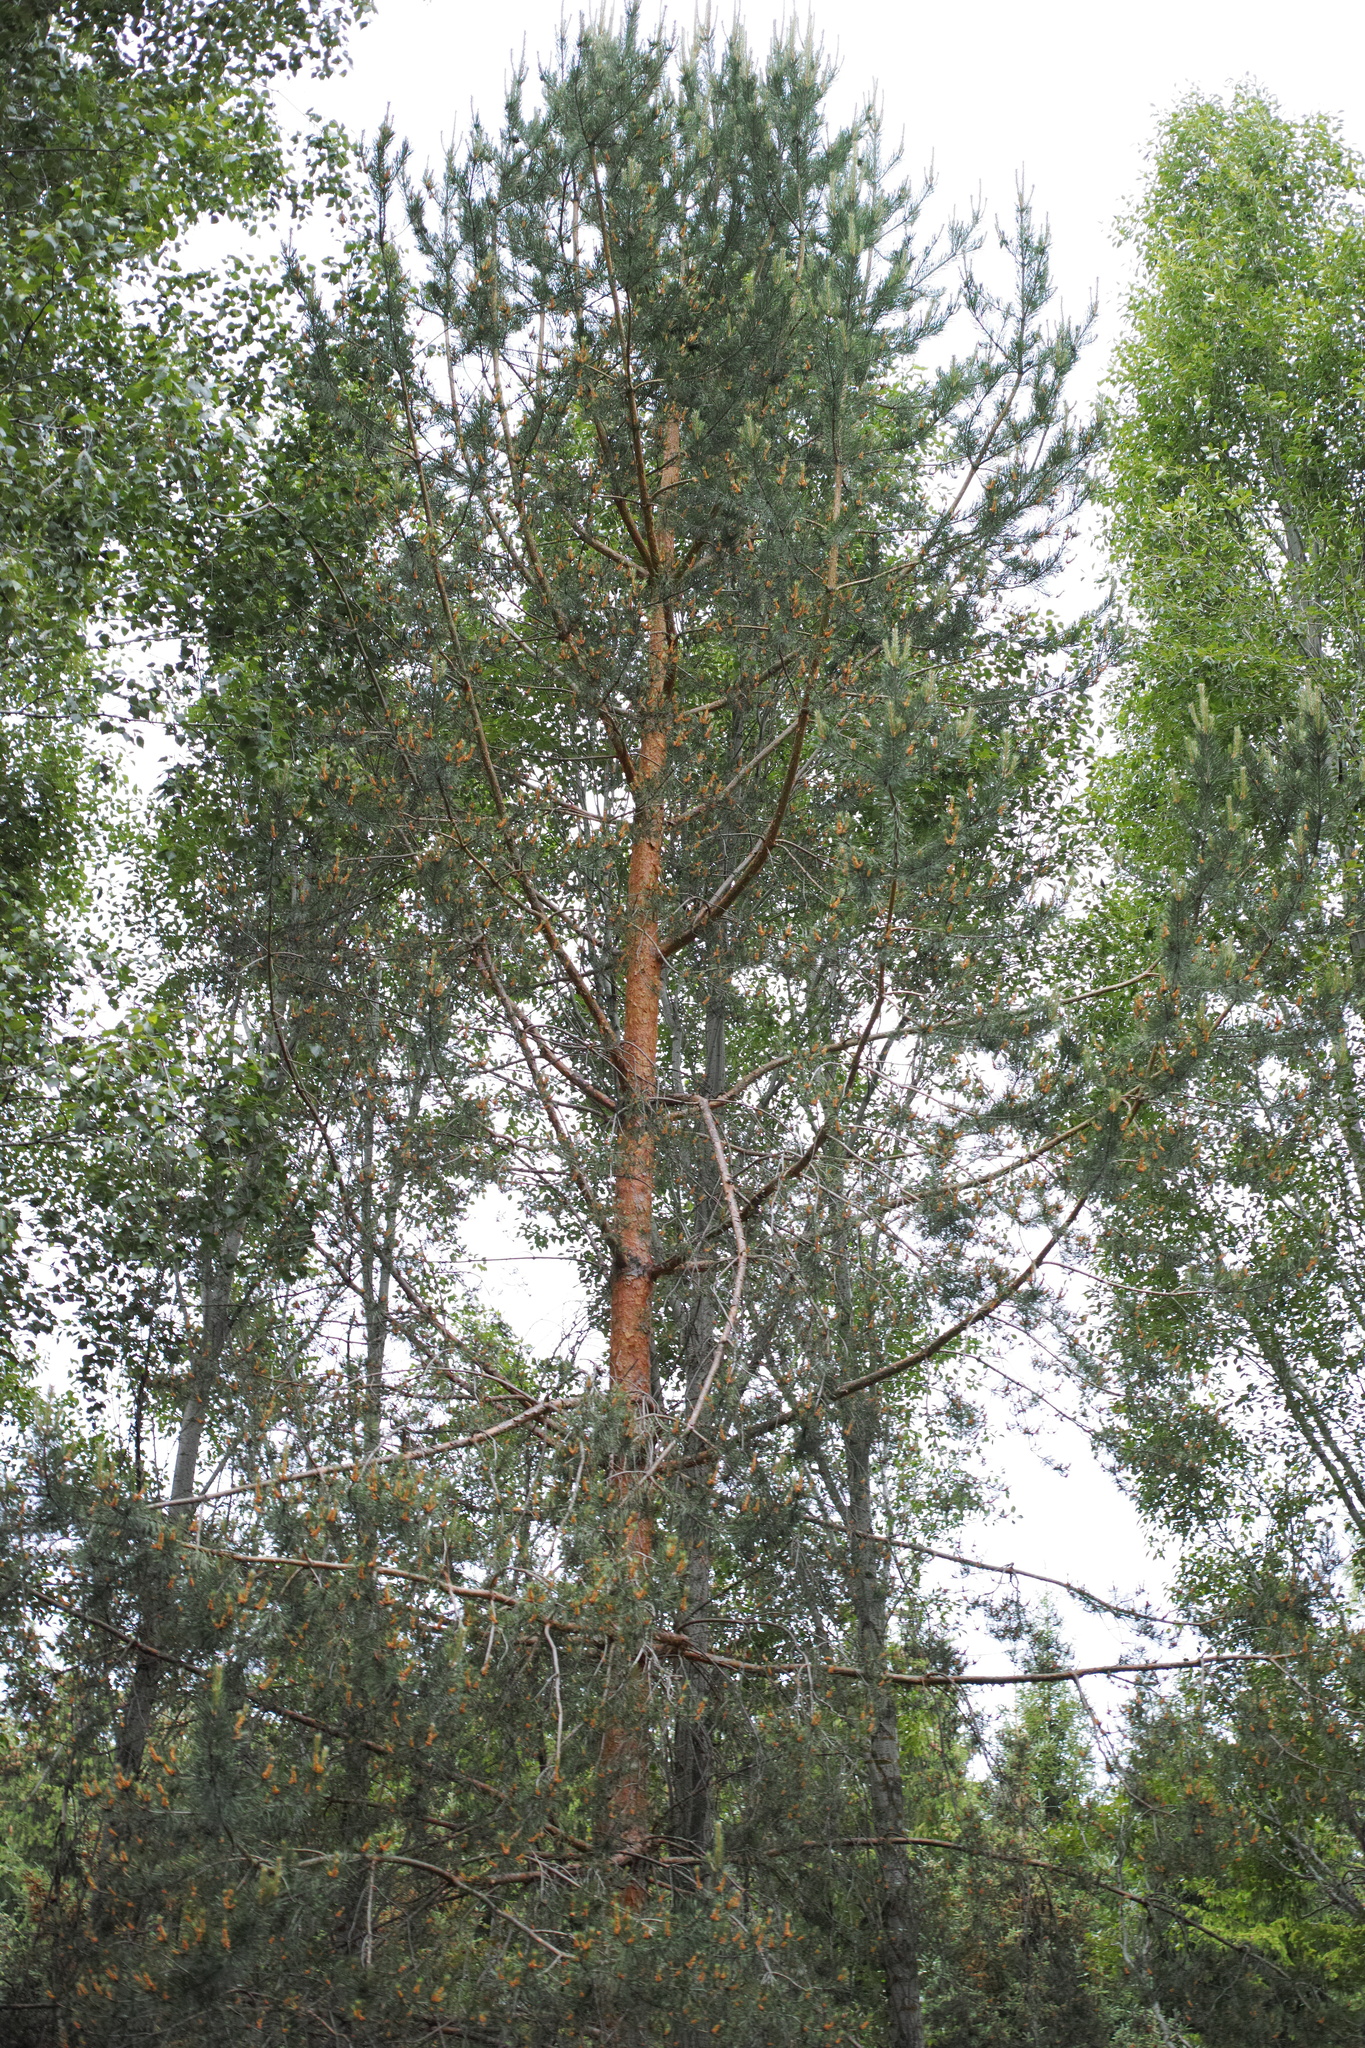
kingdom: Plantae
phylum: Tracheophyta
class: Pinopsida
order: Pinales
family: Pinaceae
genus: Pinus
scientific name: Pinus sylvestris
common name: Scots pine
